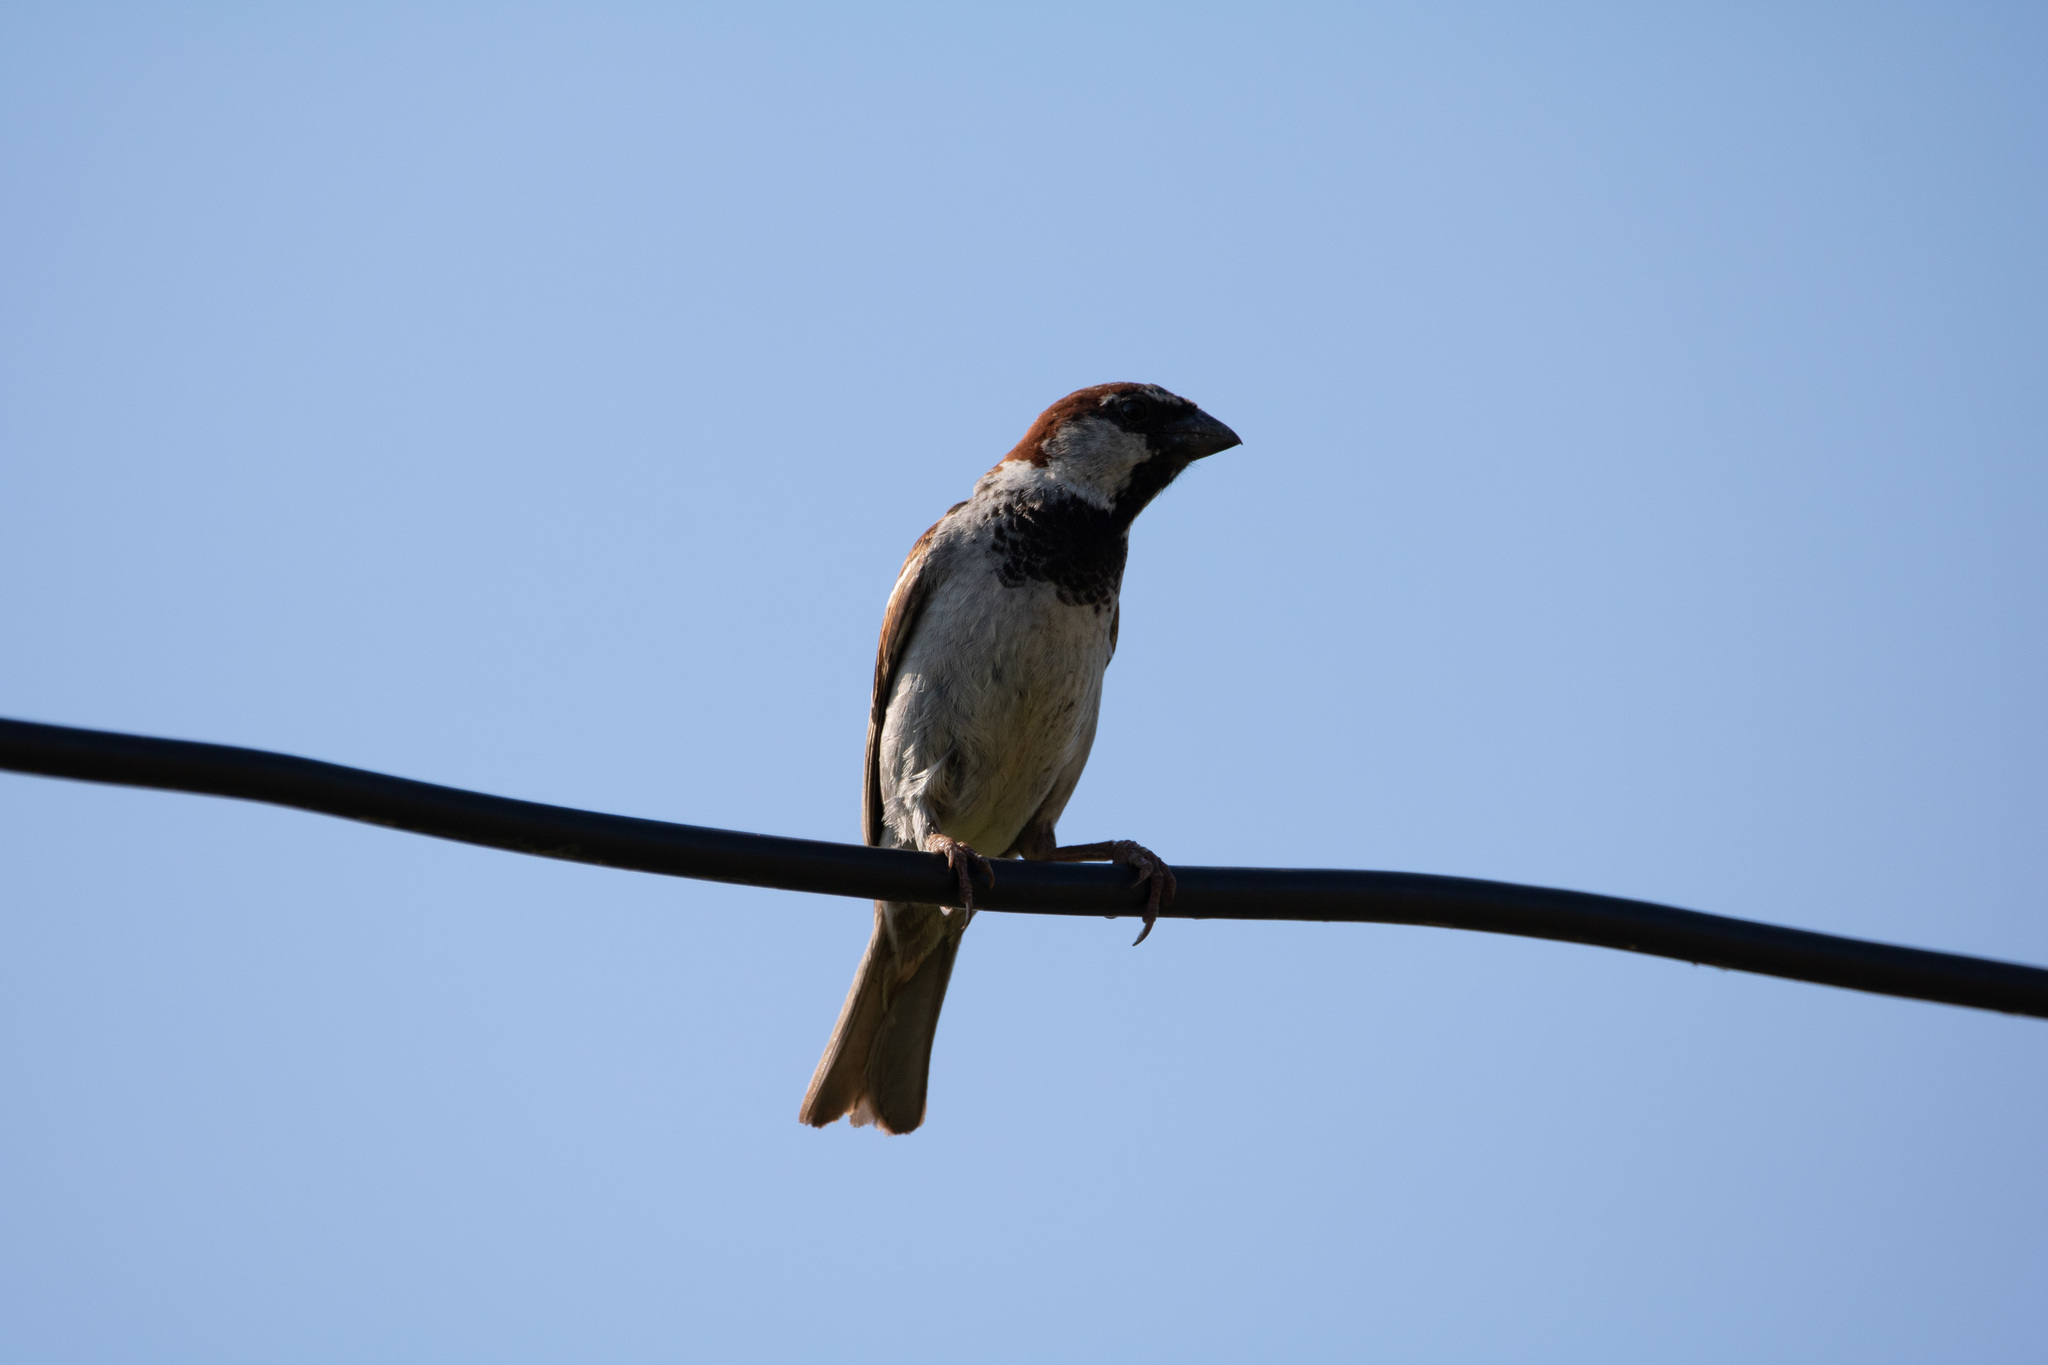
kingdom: Animalia
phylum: Chordata
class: Aves
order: Passeriformes
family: Passeridae
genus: Passer
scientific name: Passer domesticus
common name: House sparrow
